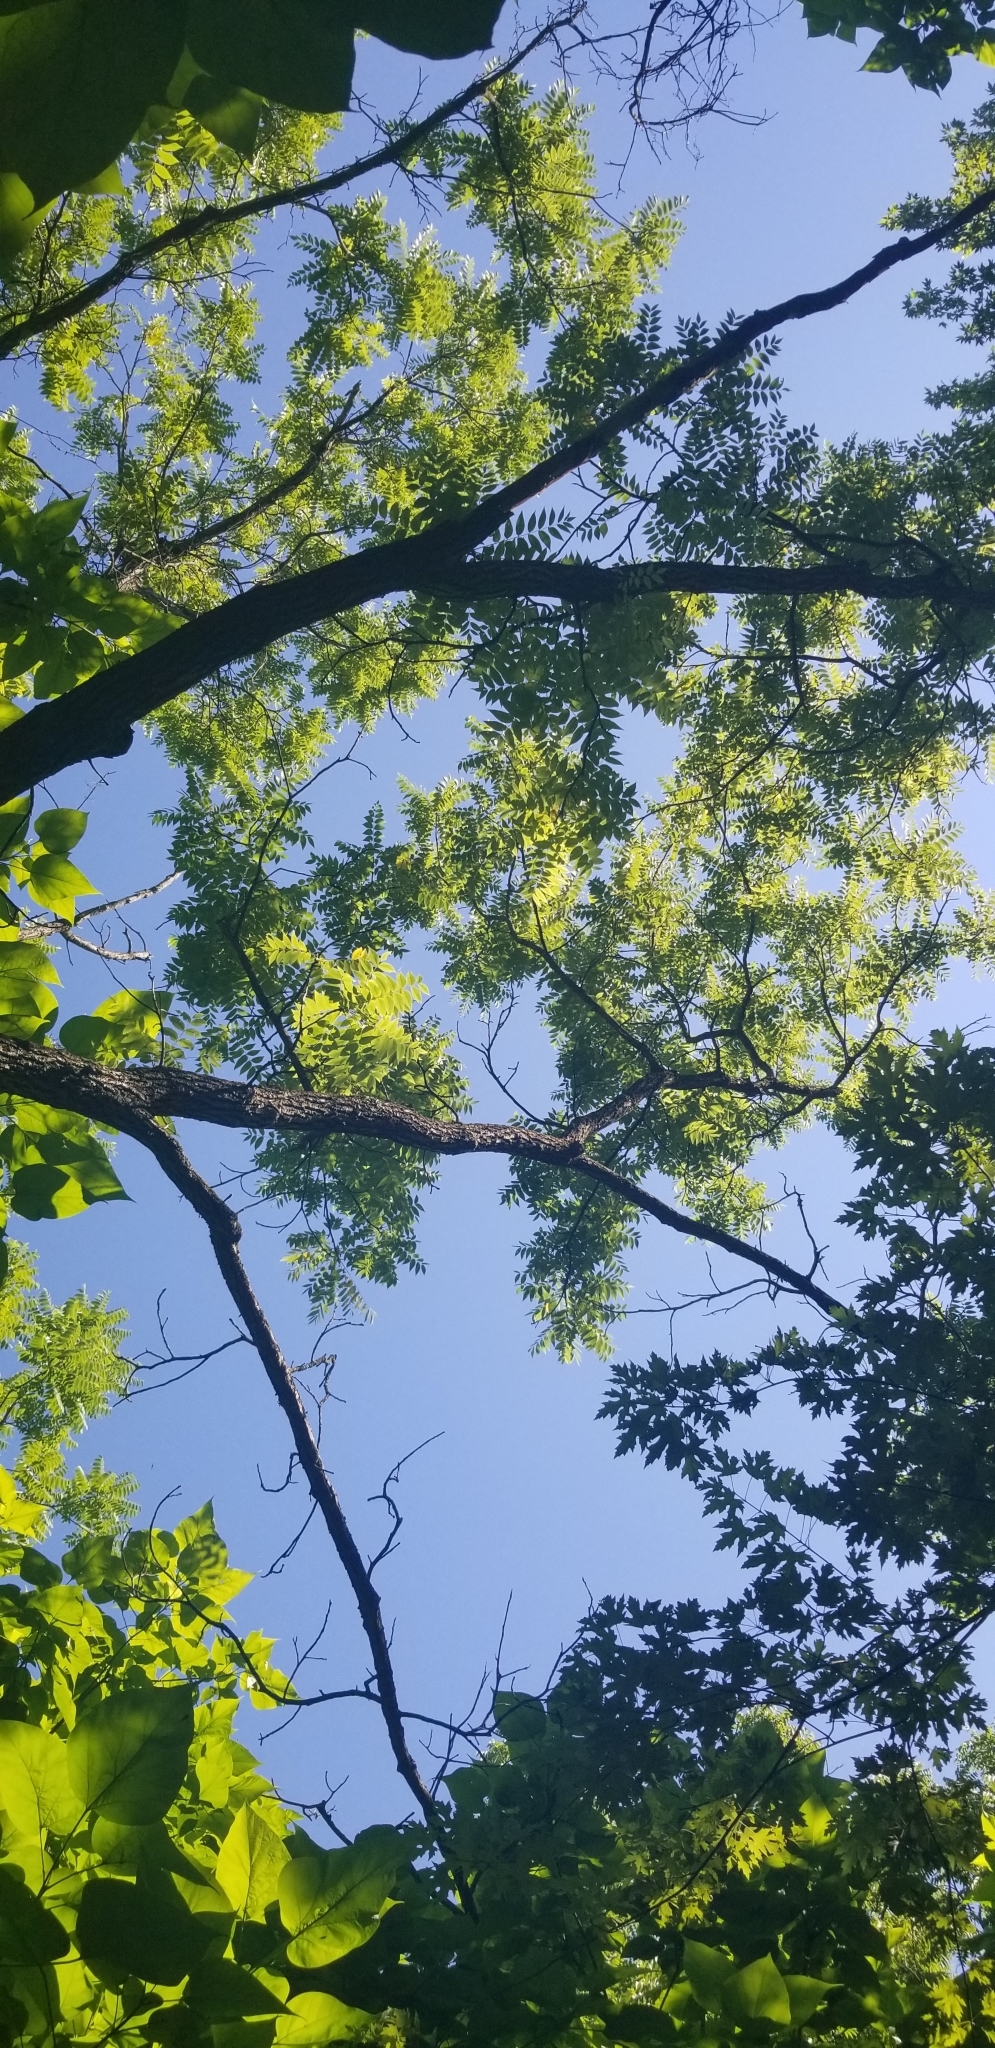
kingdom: Plantae
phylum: Tracheophyta
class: Magnoliopsida
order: Fagales
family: Juglandaceae
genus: Juglans
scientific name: Juglans nigra
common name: Black walnut
